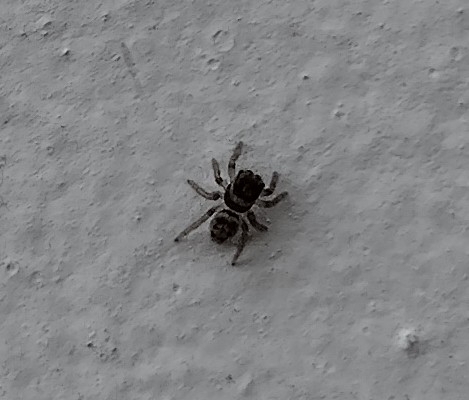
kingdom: Animalia
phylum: Arthropoda
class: Arachnida
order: Araneae
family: Salticidae
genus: Maratus
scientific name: Maratus griseus
